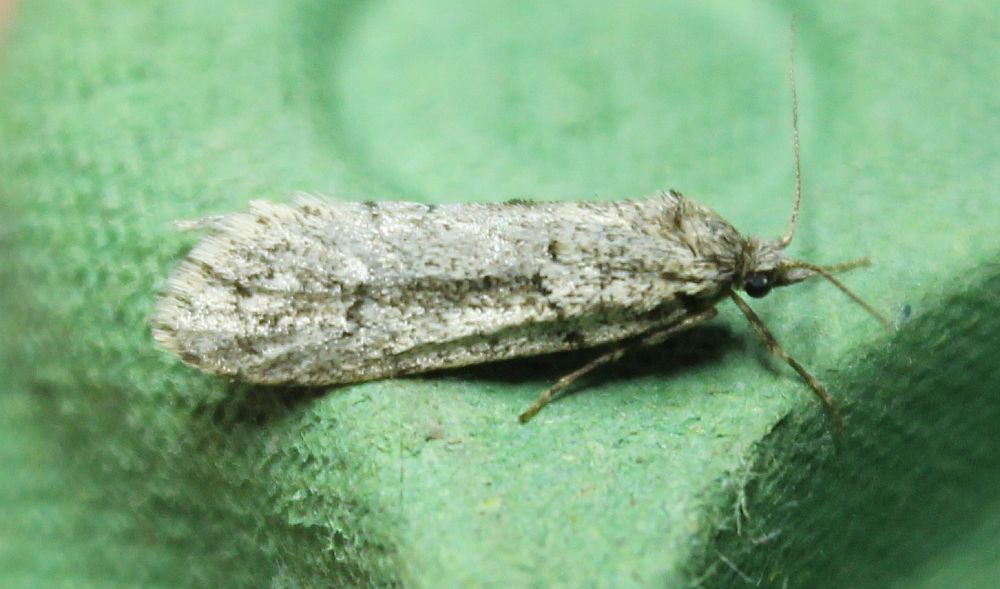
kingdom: Animalia
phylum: Arthropoda
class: Insecta
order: Lepidoptera
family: Lypusidae
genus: Diurnea
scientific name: Diurnea fagella
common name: March tubic
